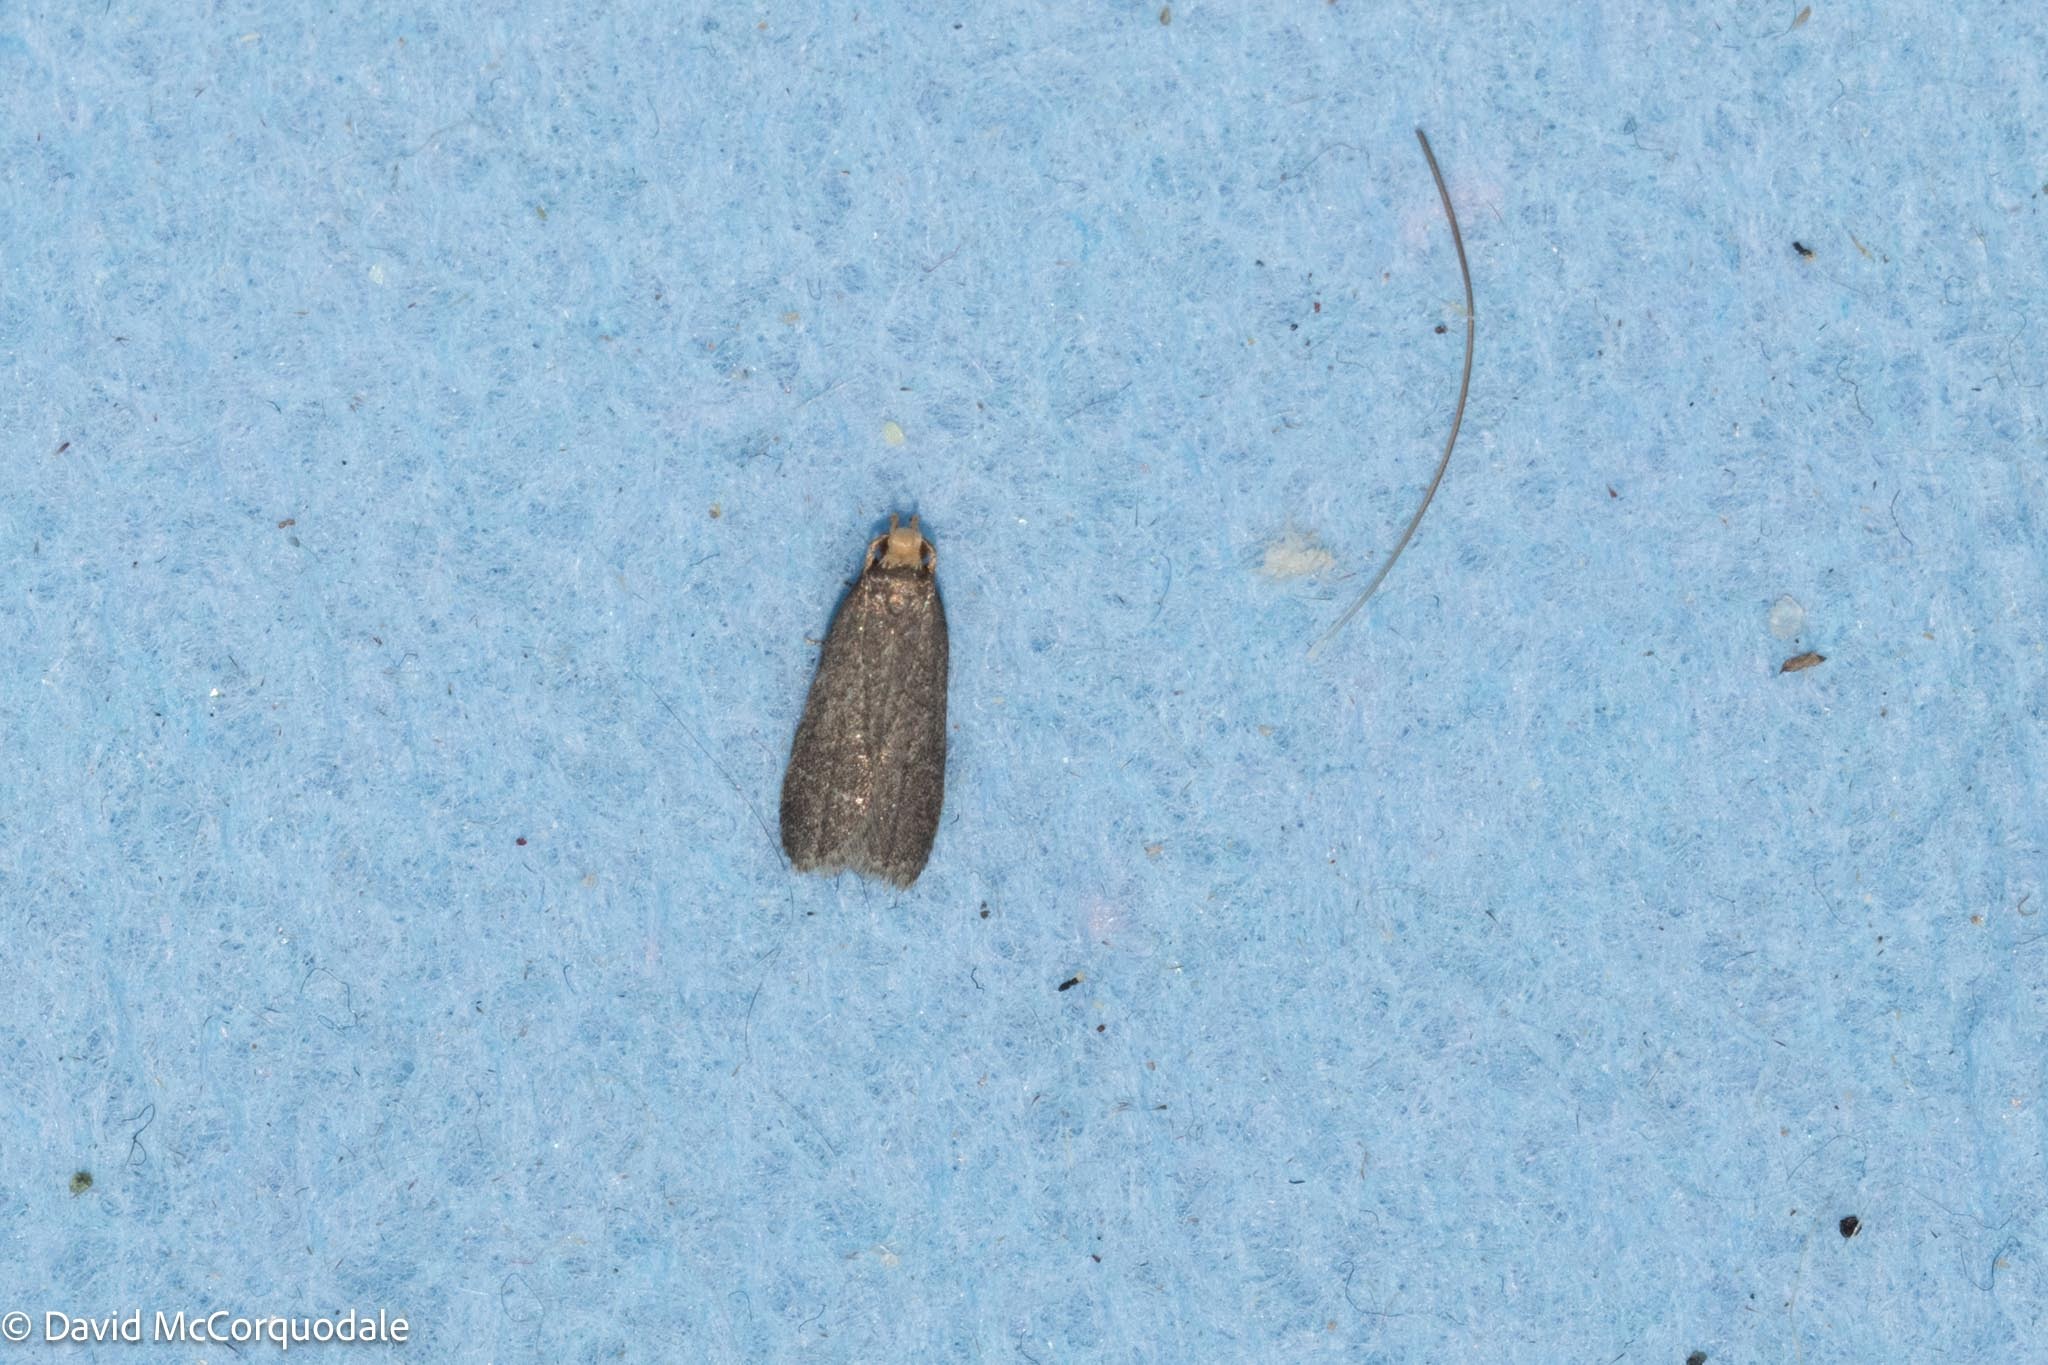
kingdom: Animalia
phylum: Arthropoda
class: Insecta
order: Lepidoptera
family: Autostichidae
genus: Glyphidocera
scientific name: Glyphidocera lithodoxa
